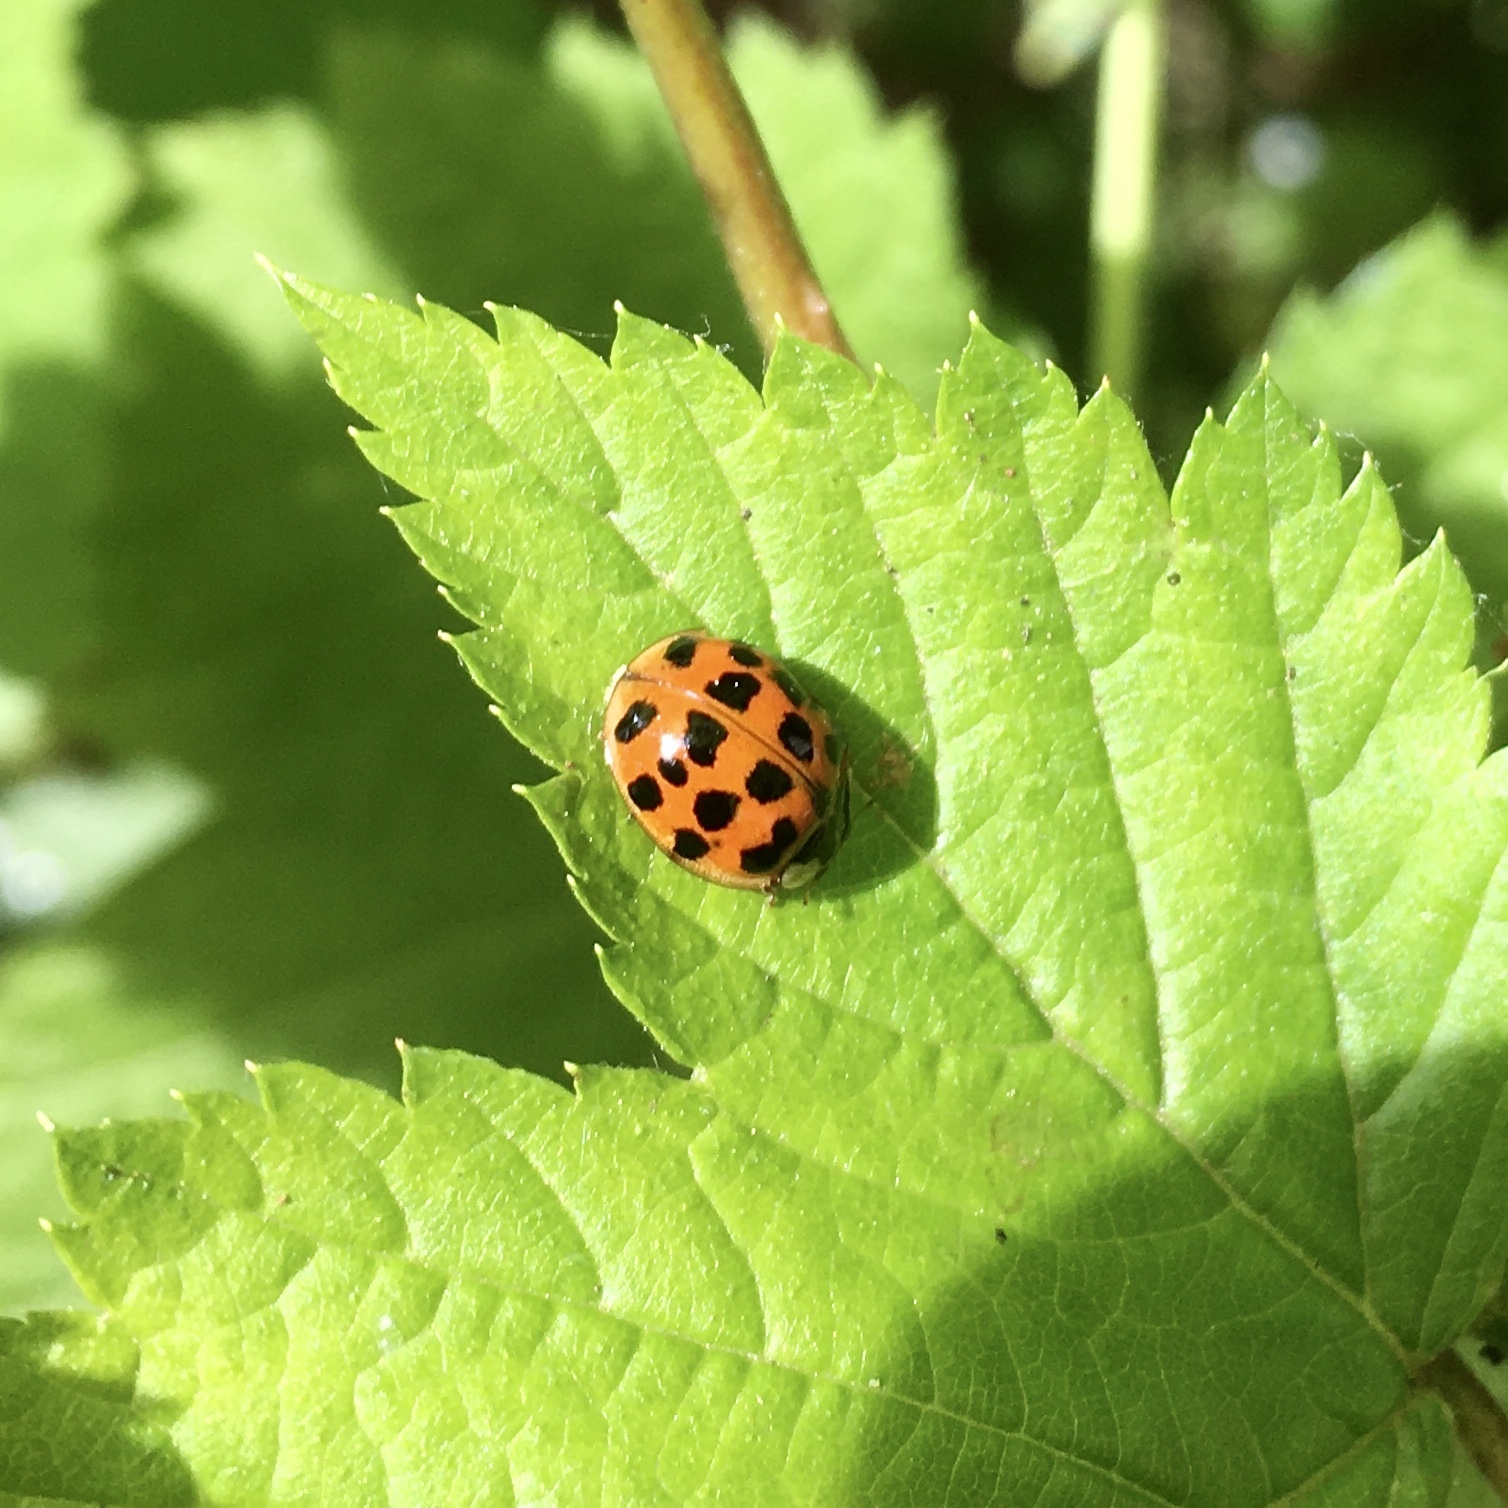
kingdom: Animalia
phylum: Arthropoda
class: Insecta
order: Coleoptera
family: Coccinellidae
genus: Harmonia
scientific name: Harmonia axyridis
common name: Harlequin ladybird
